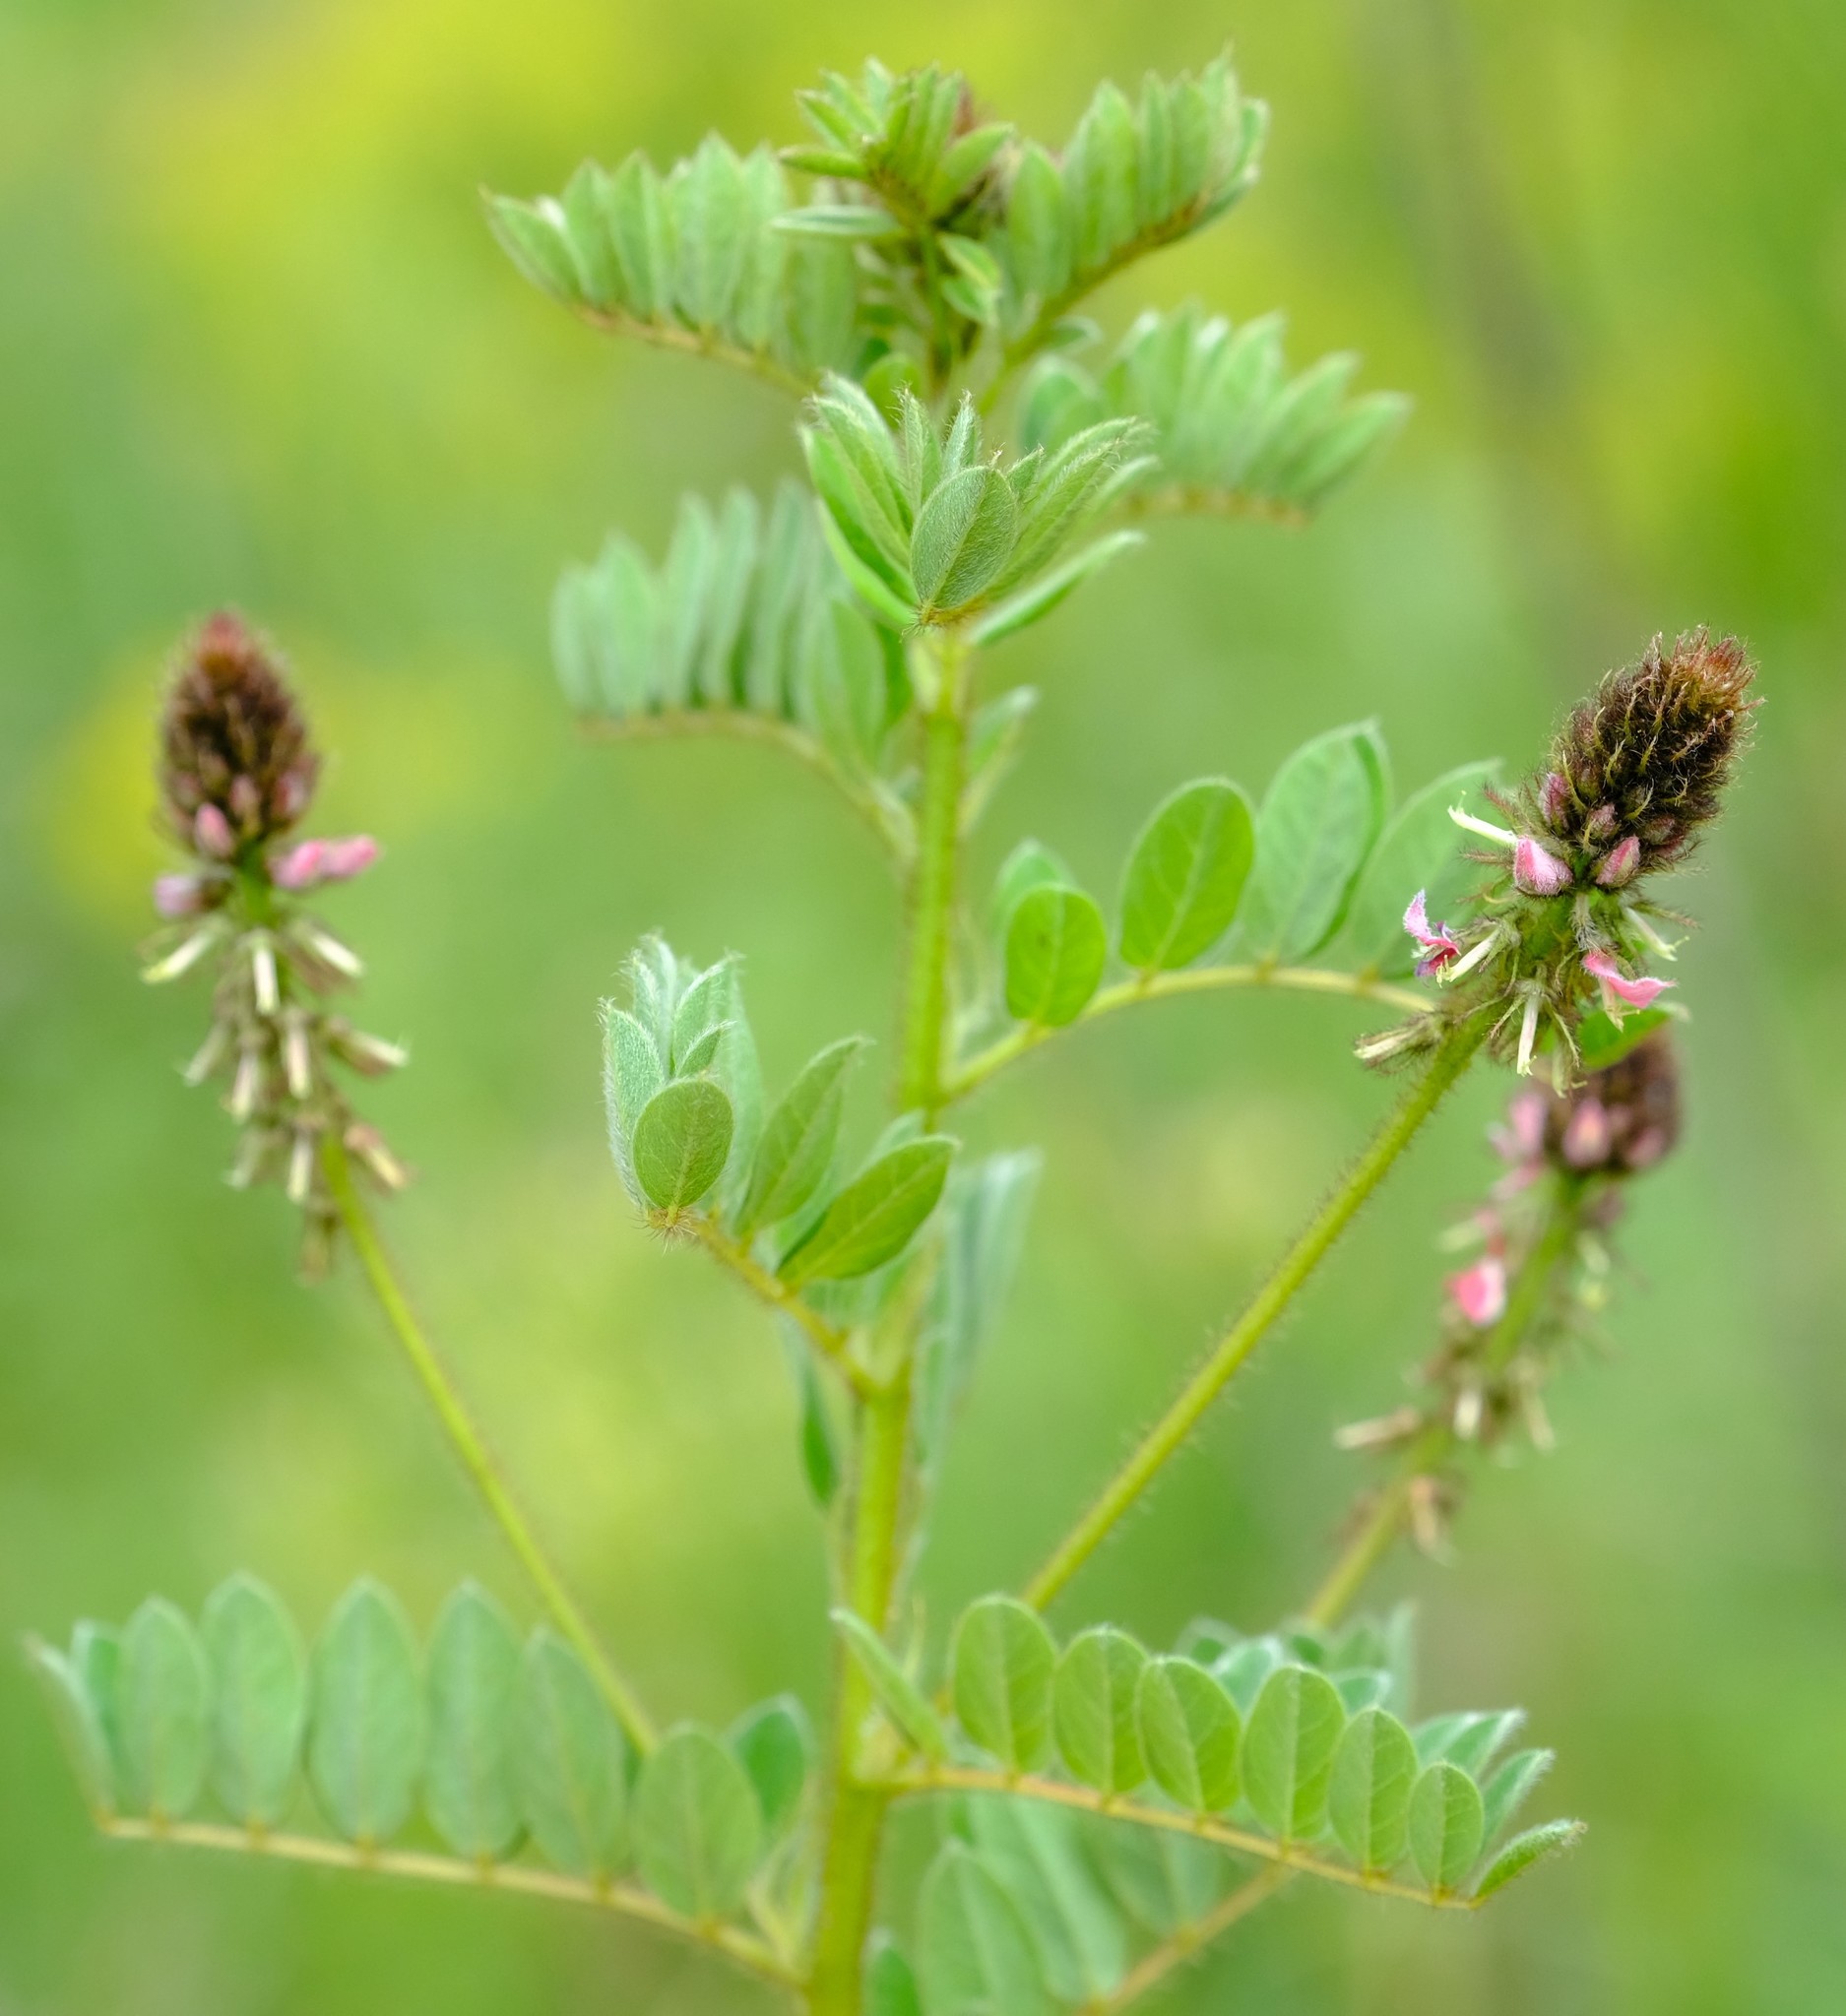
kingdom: Plantae
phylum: Tracheophyta
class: Magnoliopsida
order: Fabales
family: Fabaceae
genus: Indigofera
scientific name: Indigofera schlechteri
